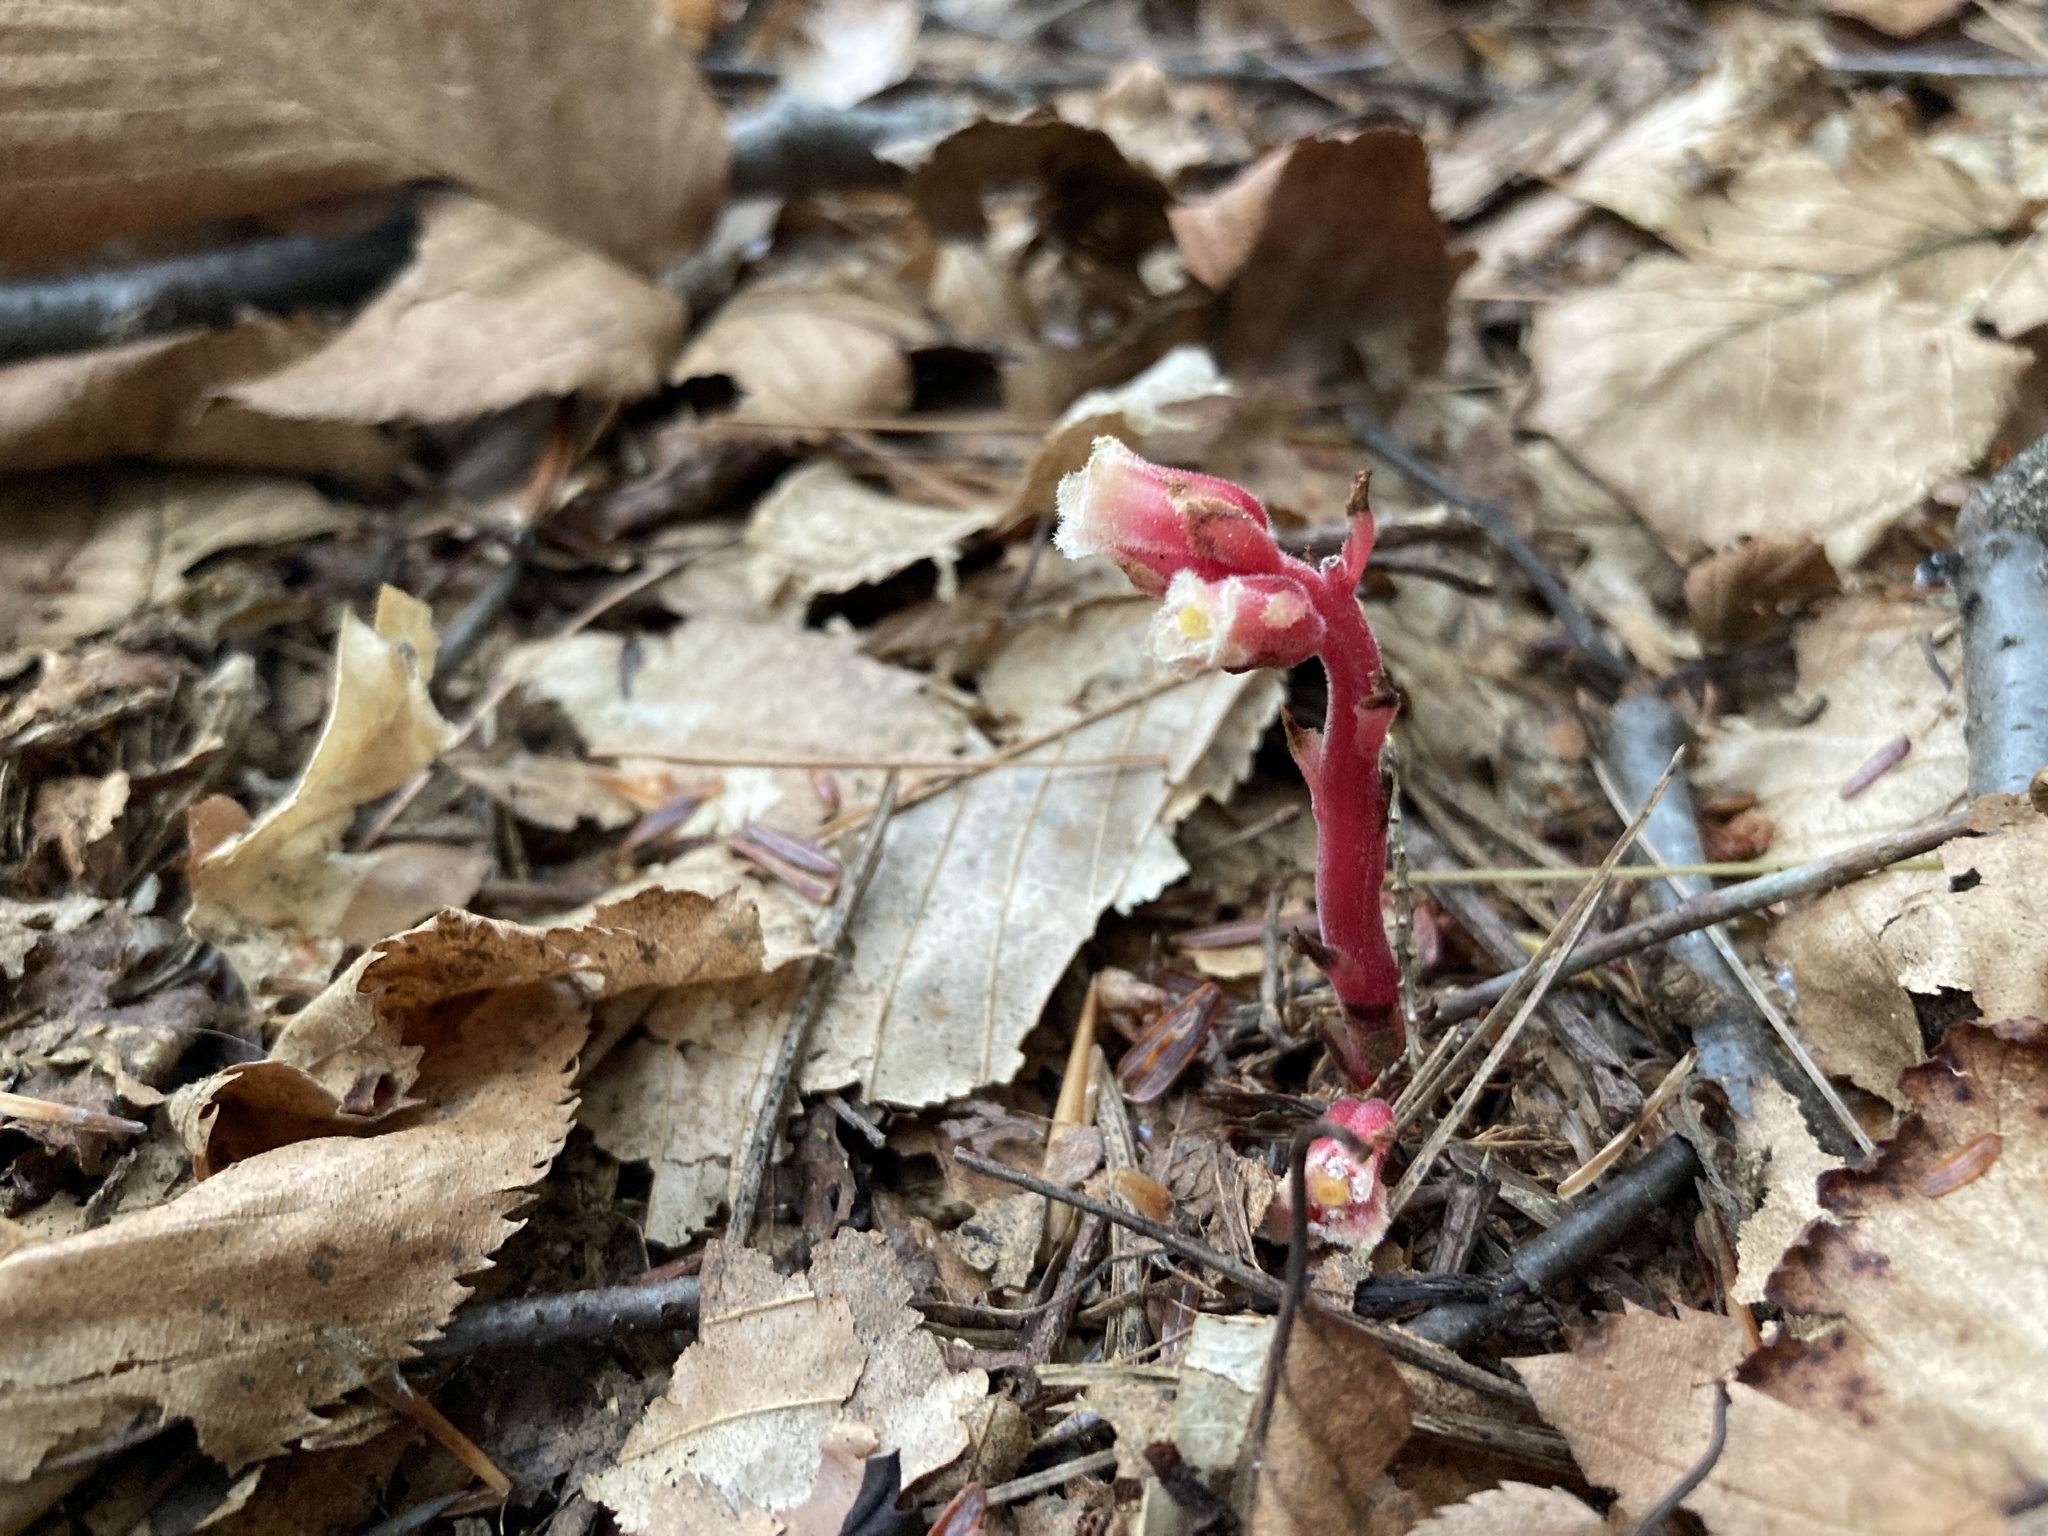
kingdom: Plantae
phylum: Tracheophyta
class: Magnoliopsida
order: Ericales
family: Ericaceae
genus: Hypopitys
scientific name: Hypopitys monotropa
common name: Yellow bird's-nest
